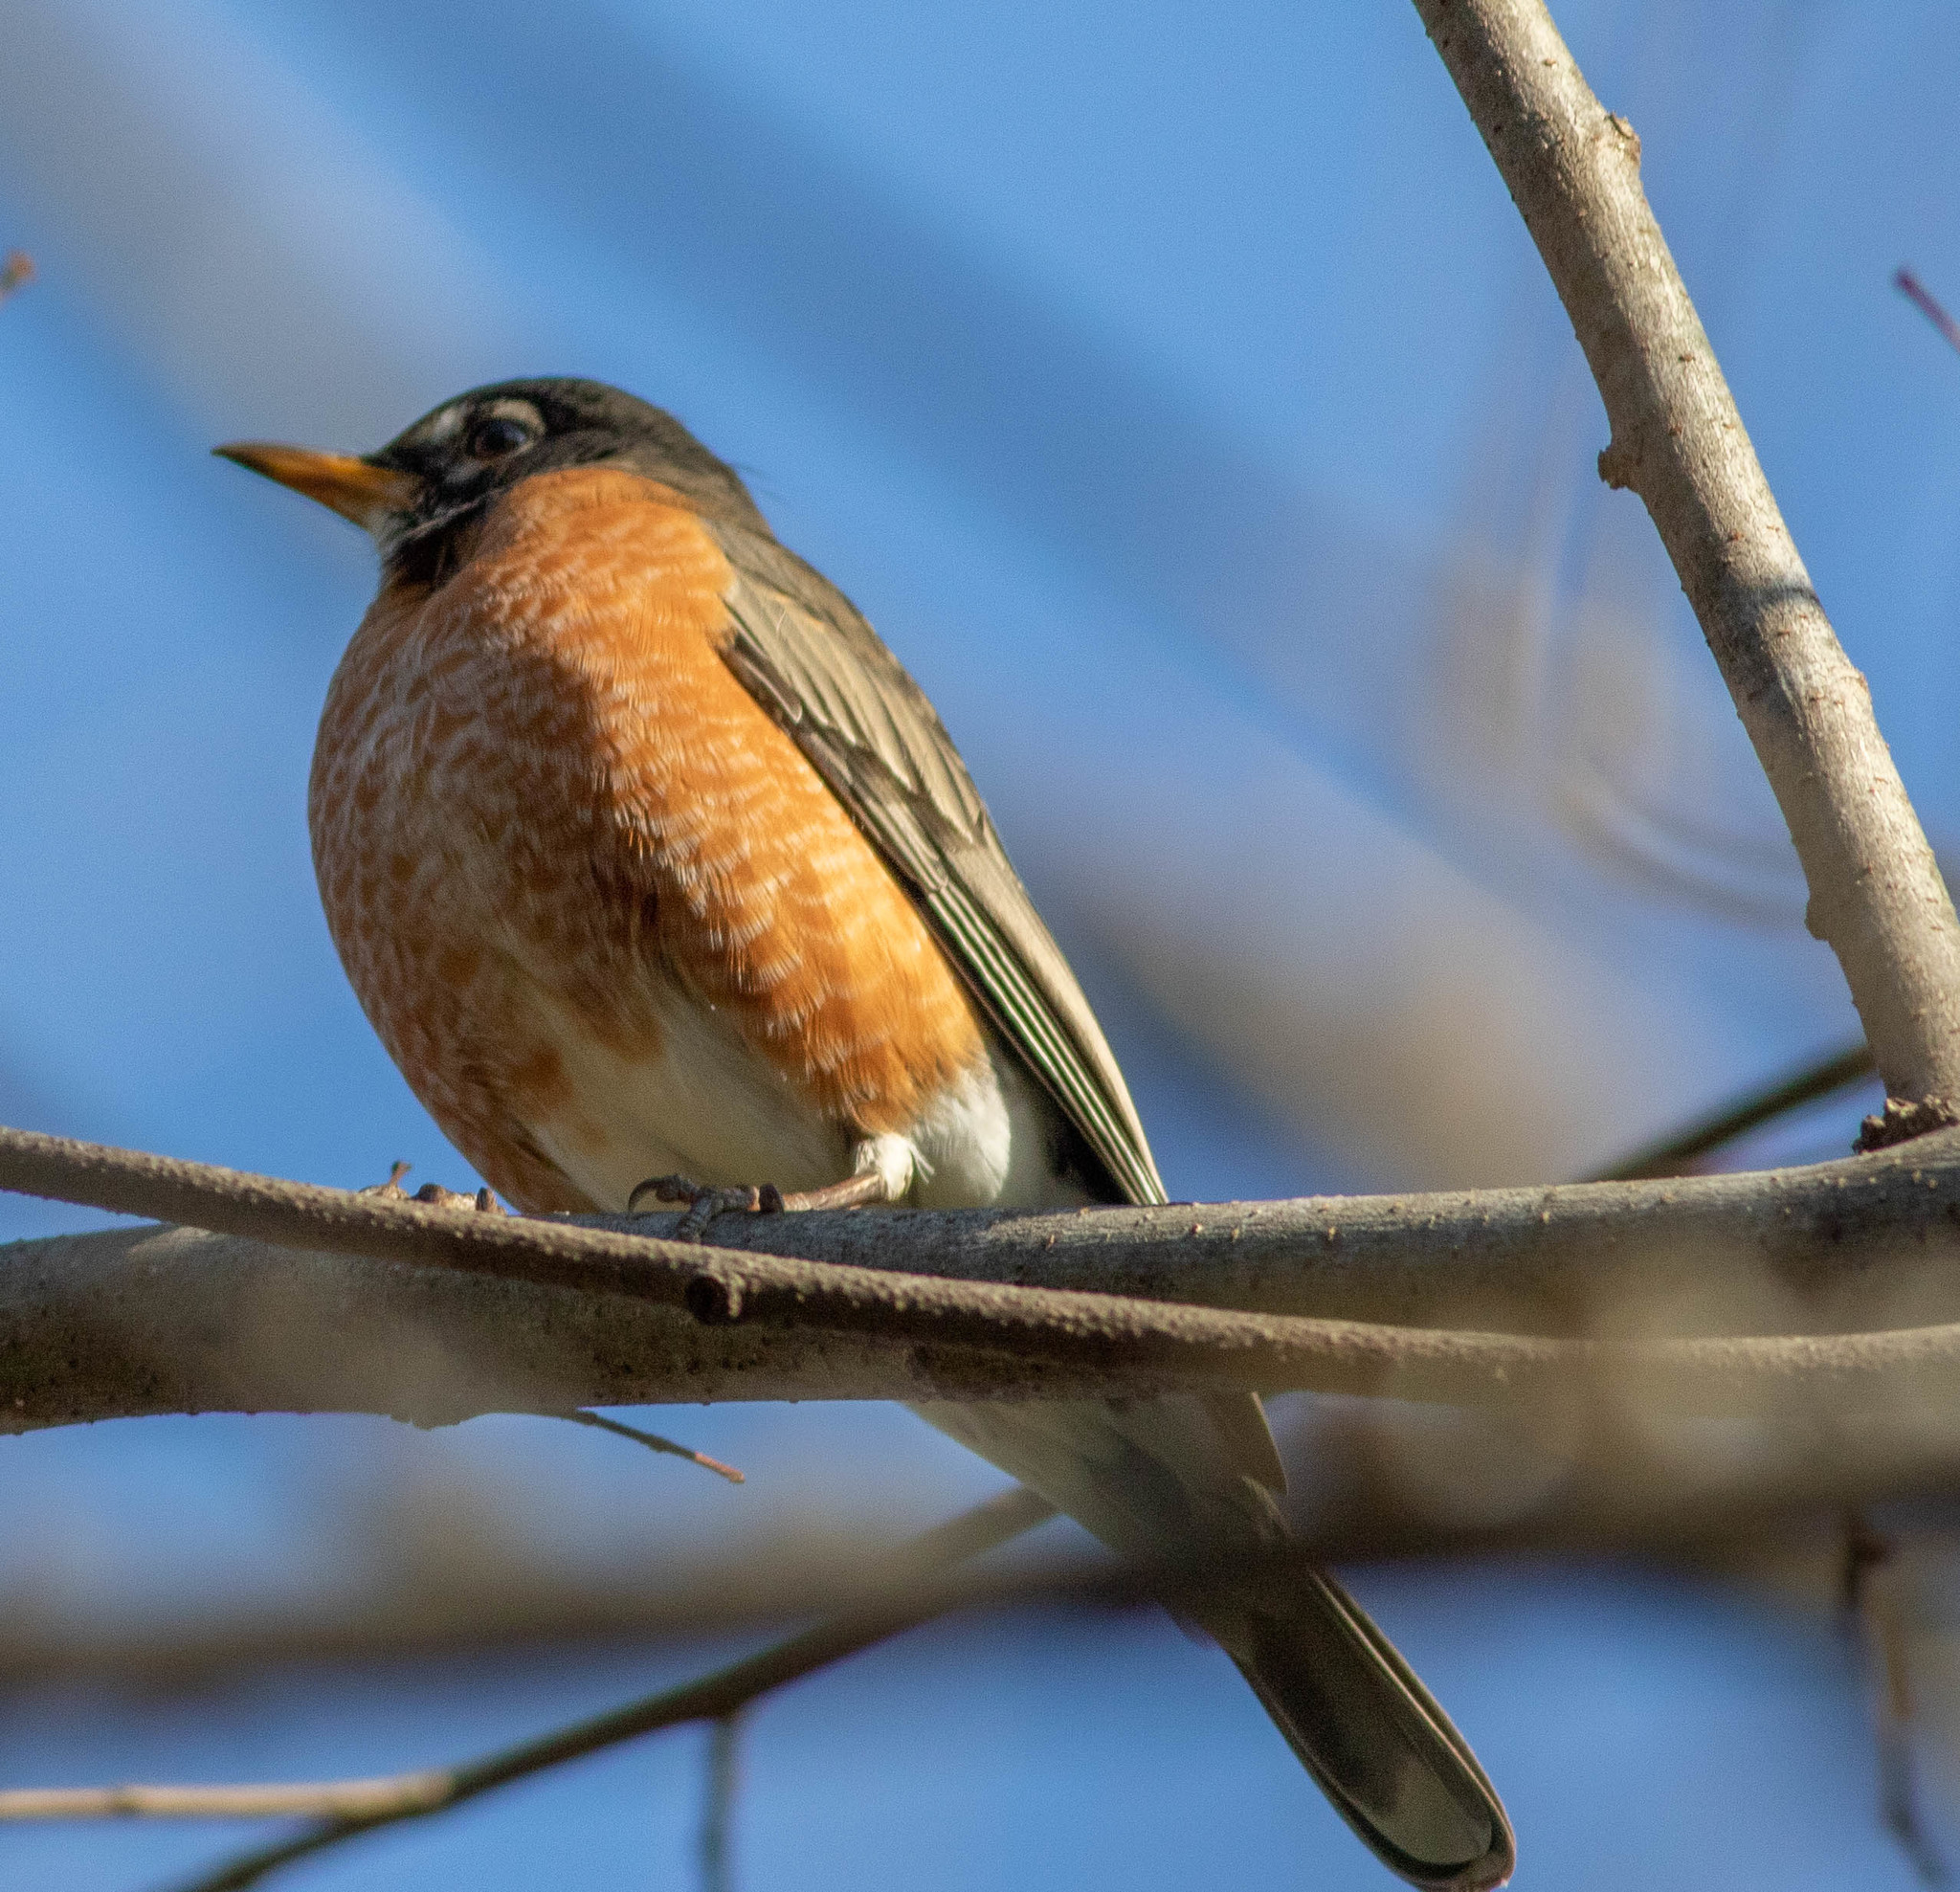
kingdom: Animalia
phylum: Chordata
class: Aves
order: Passeriformes
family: Turdidae
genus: Turdus
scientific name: Turdus migratorius
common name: American robin
